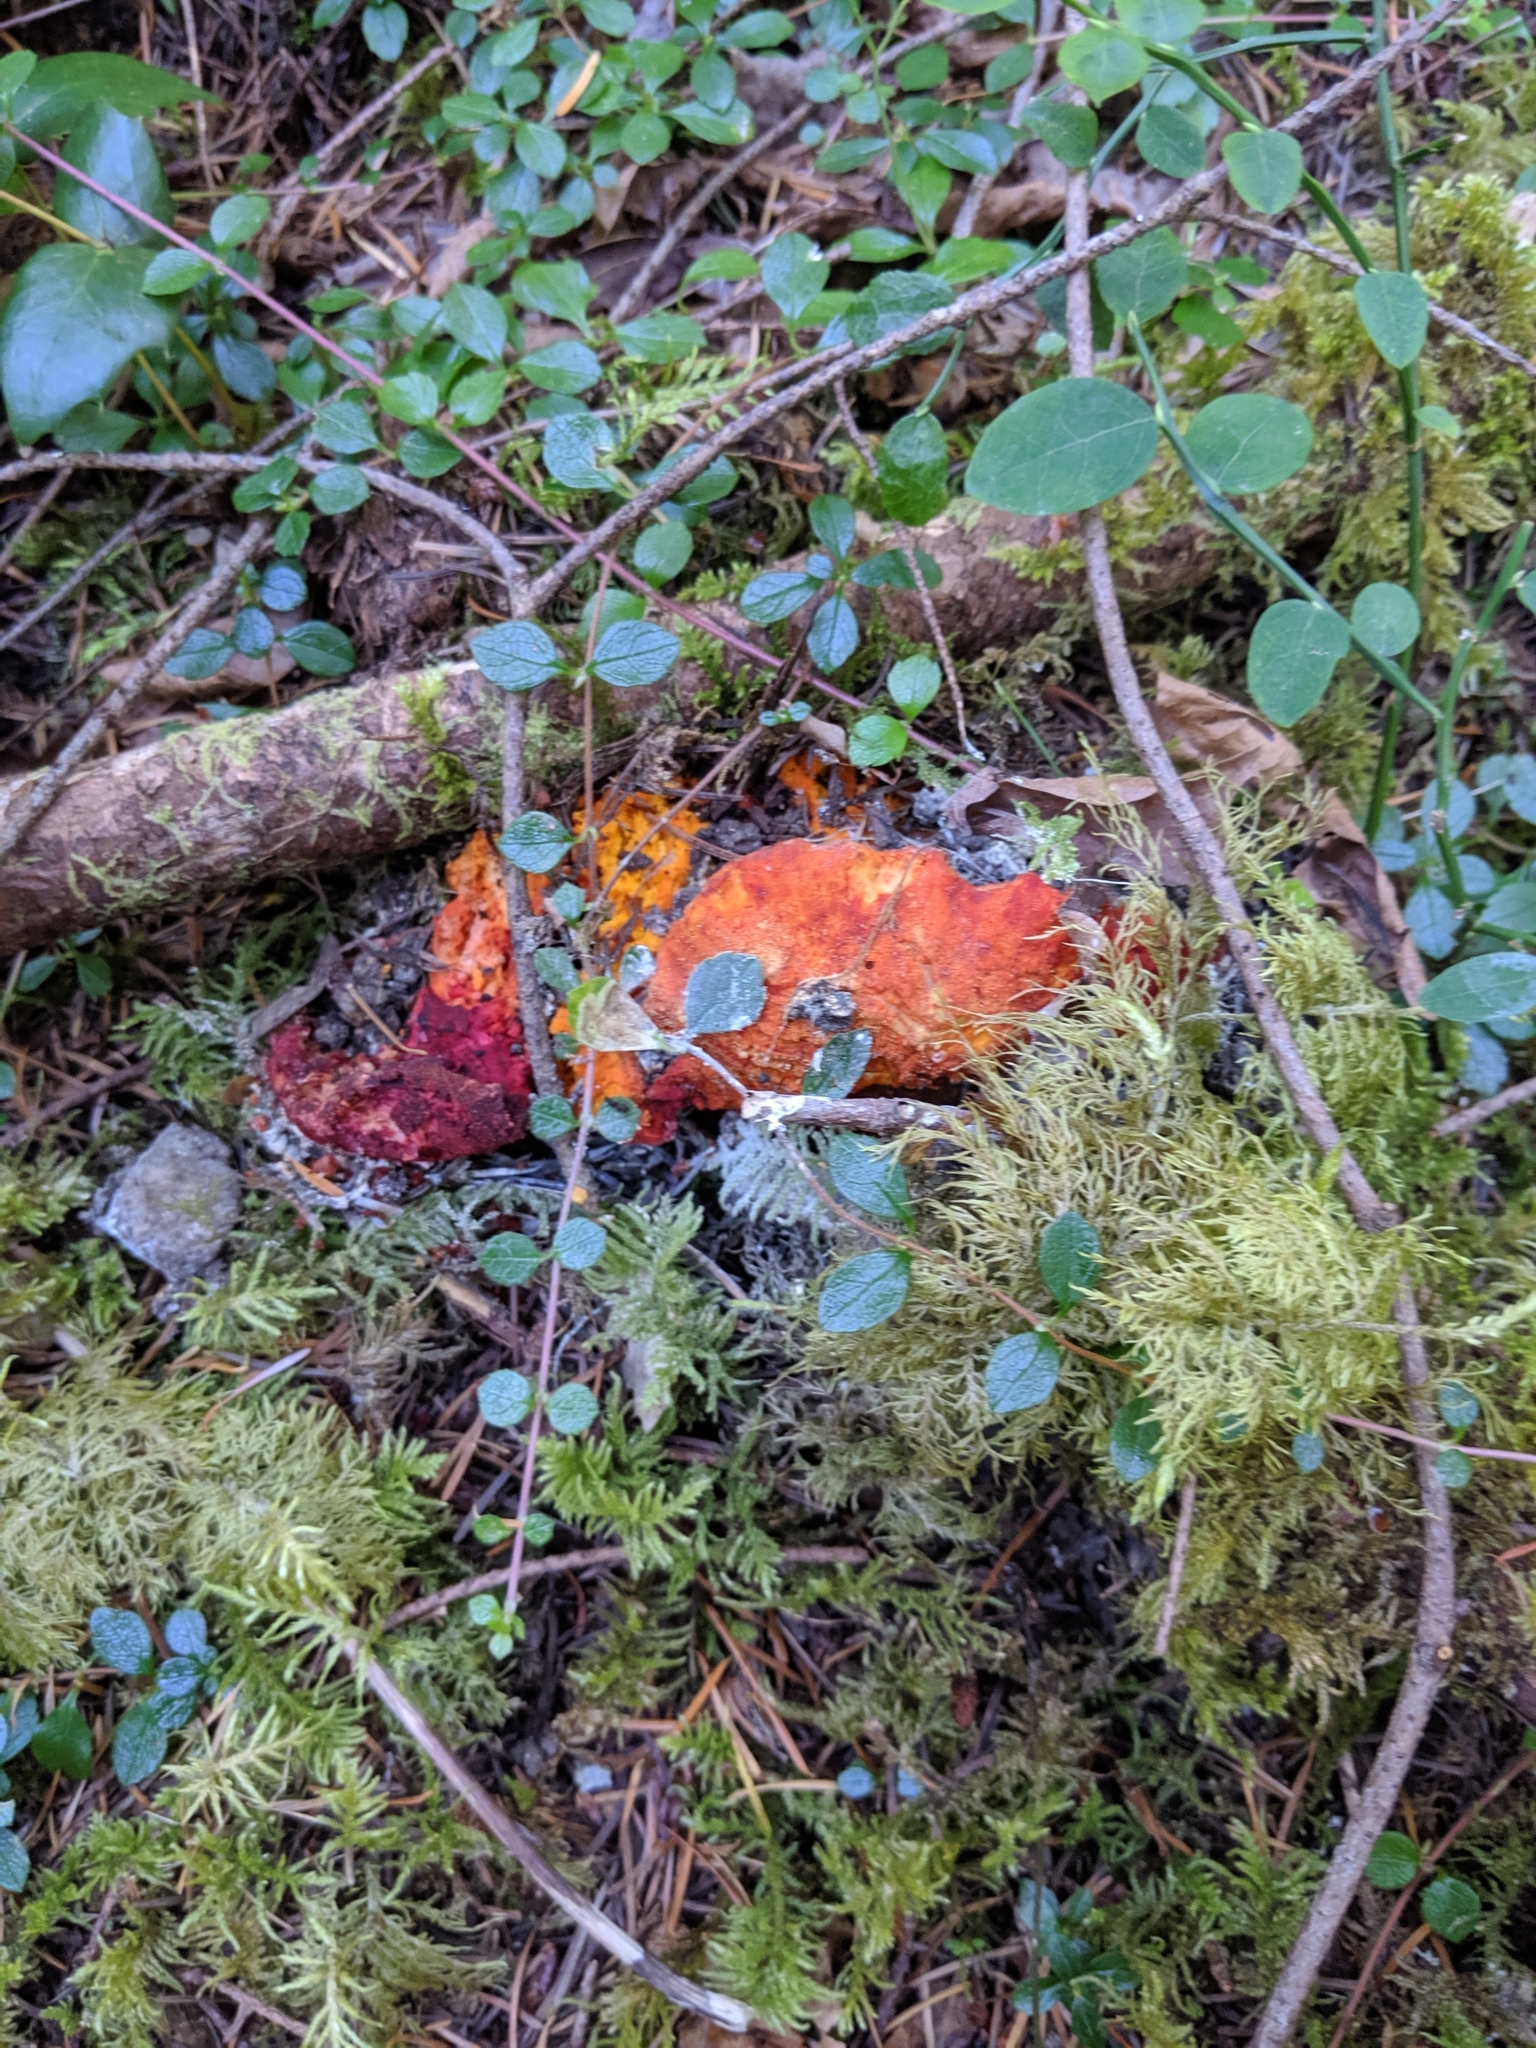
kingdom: Fungi
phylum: Ascomycota
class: Sordariomycetes
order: Hypocreales
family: Hypocreaceae
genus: Hypomyces
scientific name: Hypomyces lactifluorum
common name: Lobster mushroom
